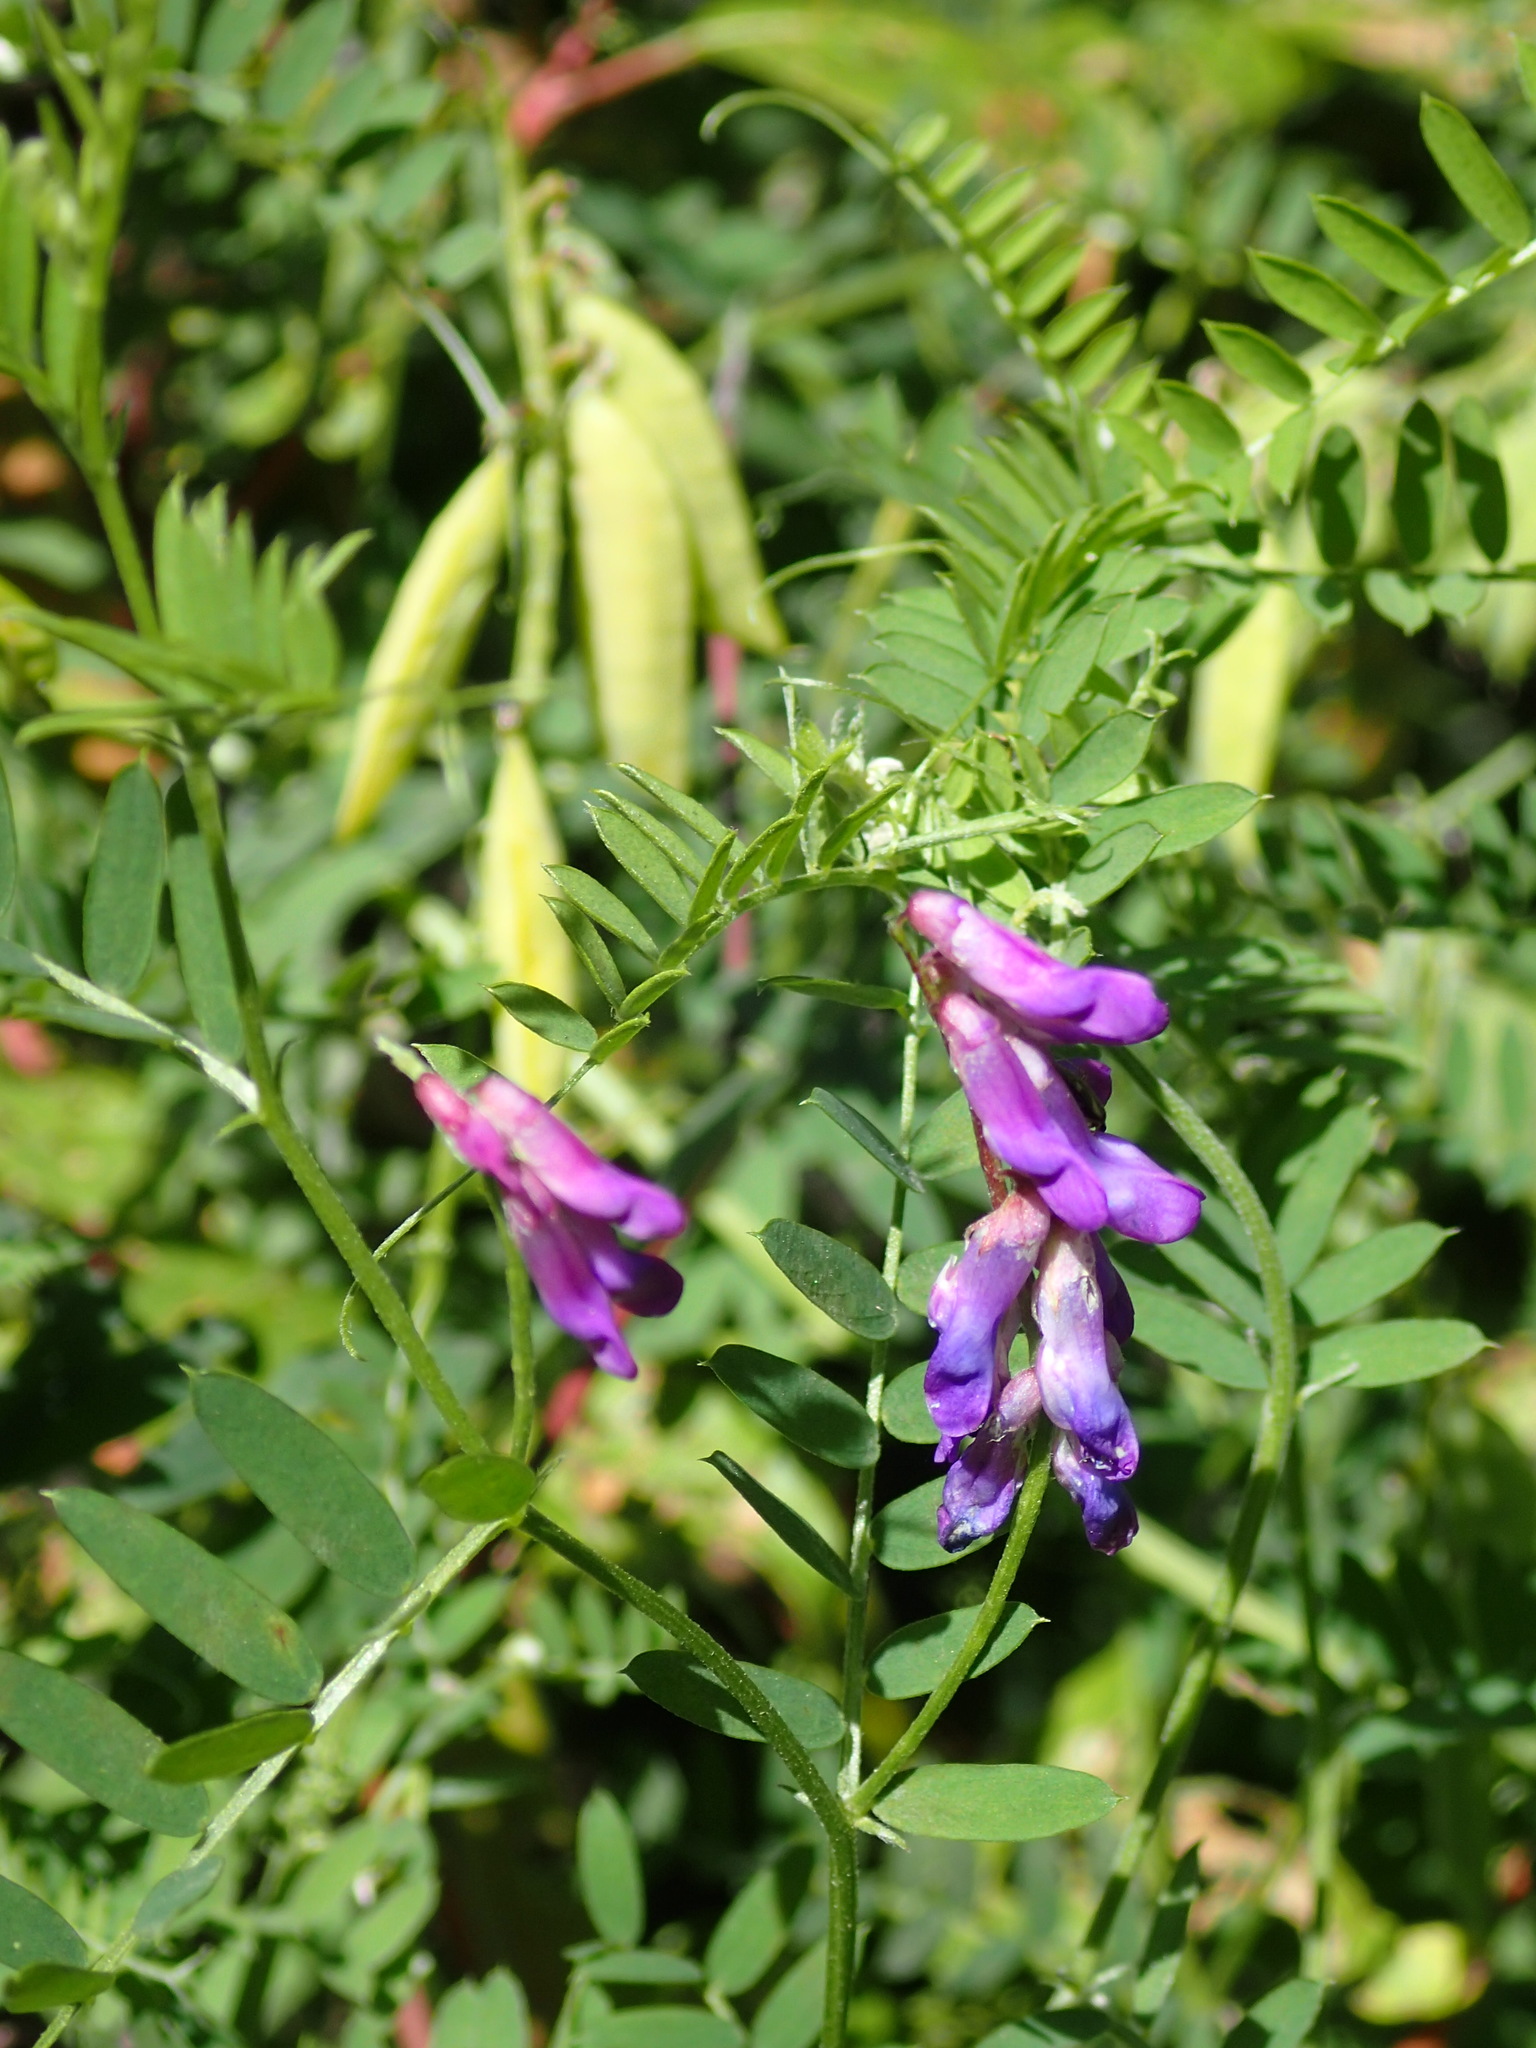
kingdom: Plantae
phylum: Tracheophyta
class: Magnoliopsida
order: Fabales
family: Fabaceae
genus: Vicia
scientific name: Vicia cracca
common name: Bird vetch
